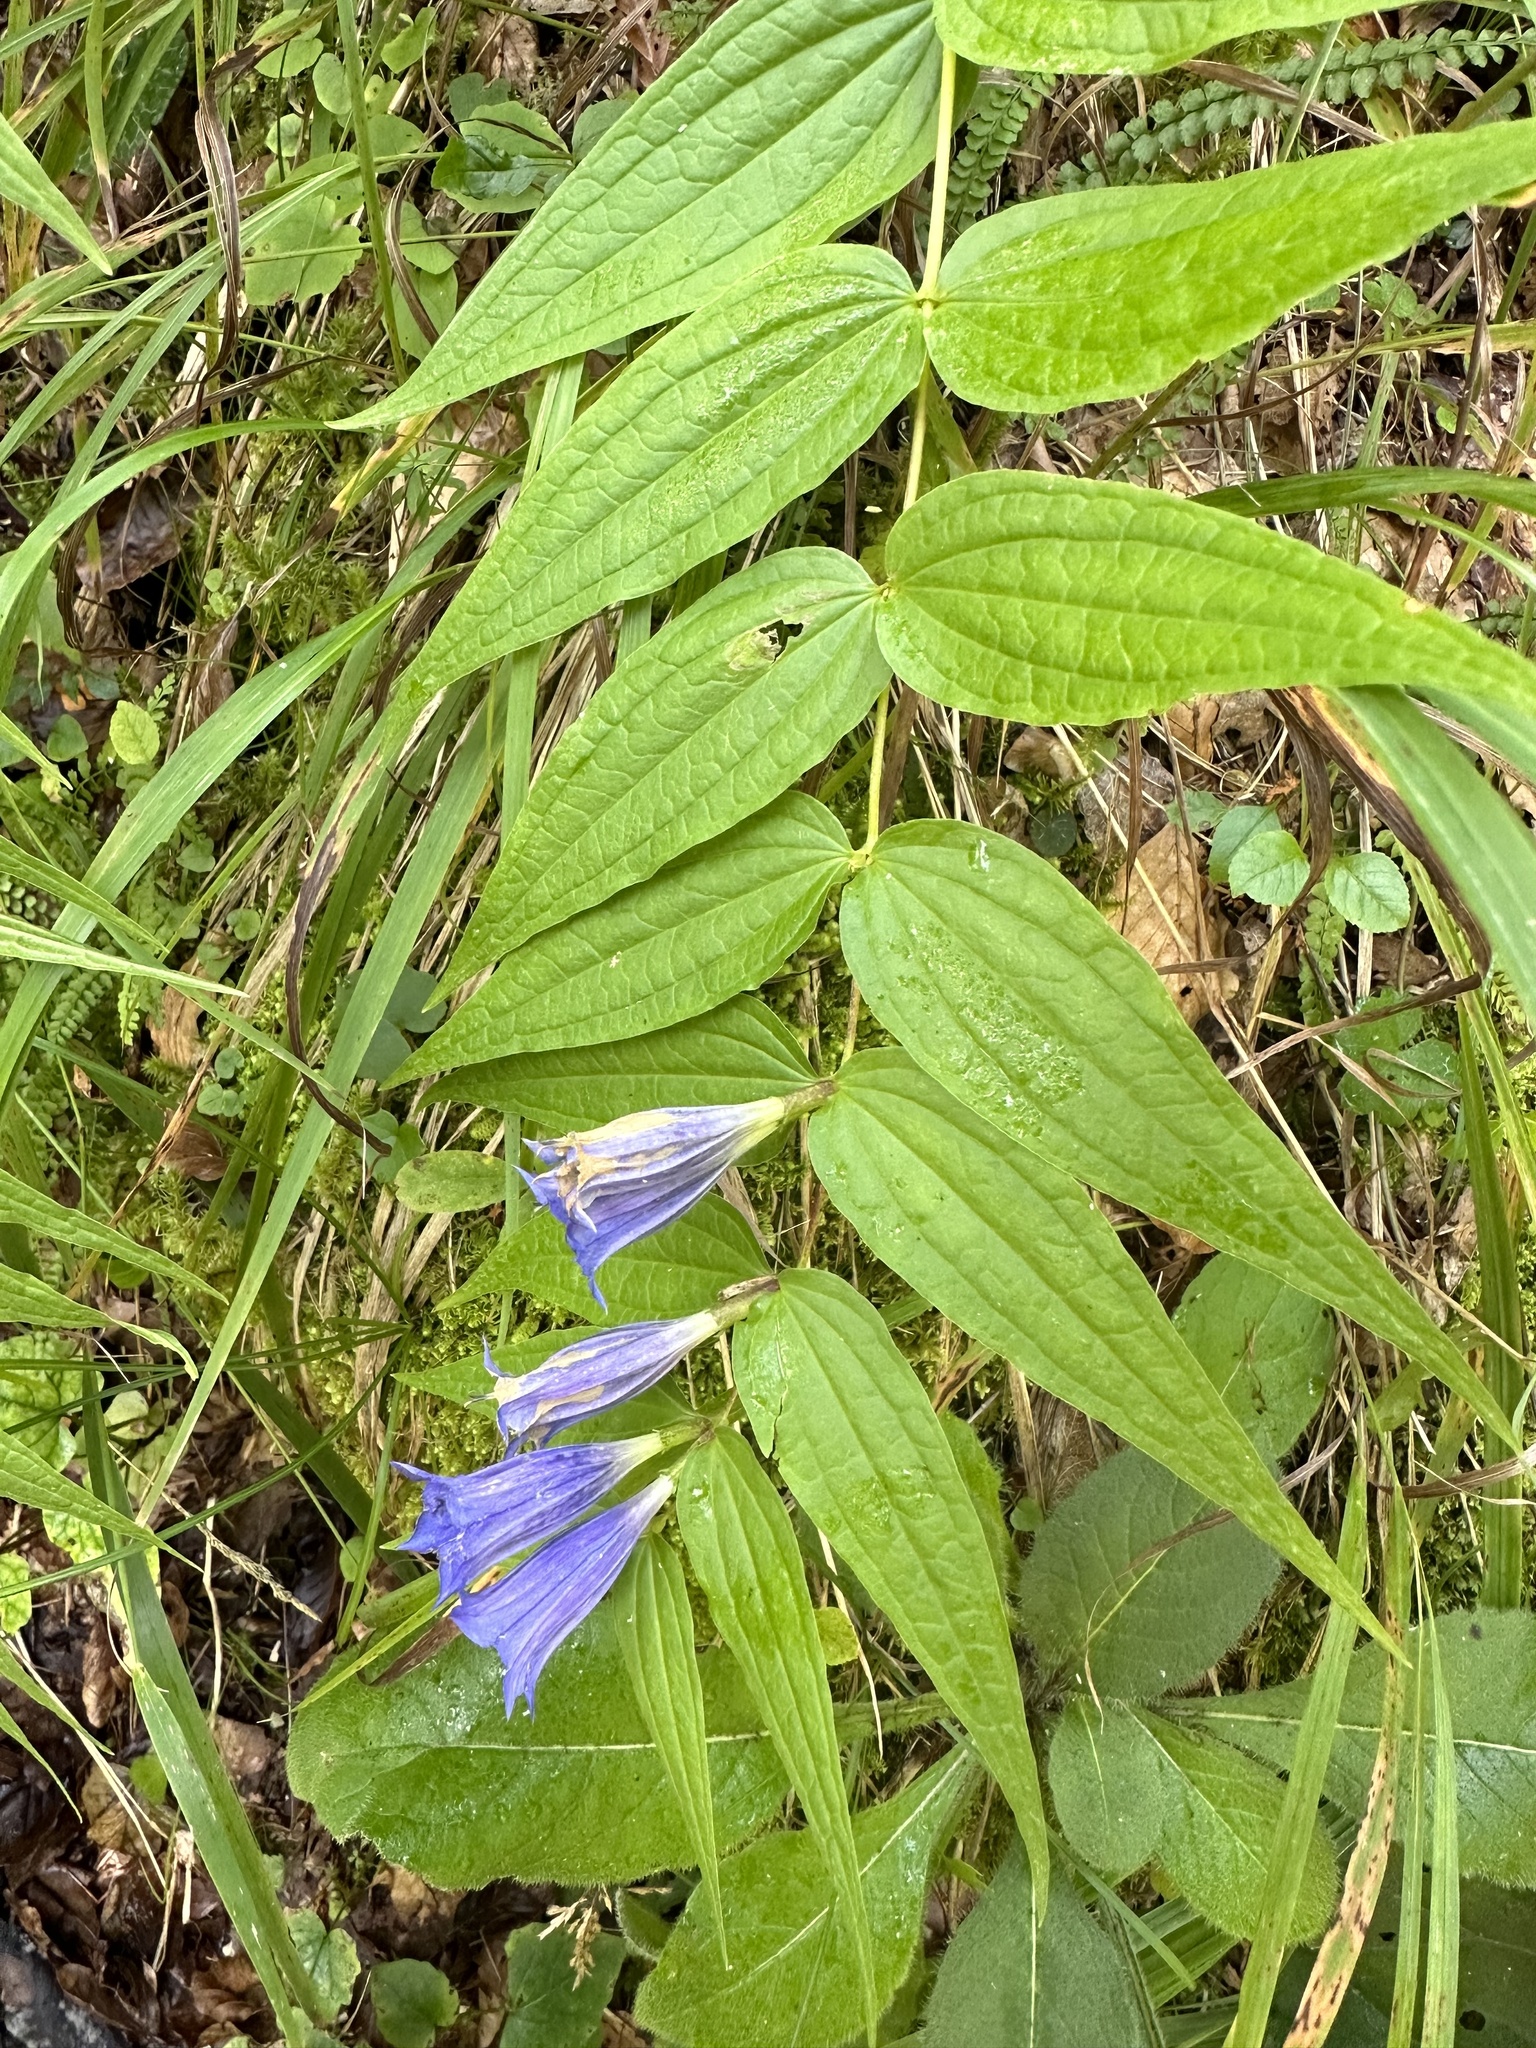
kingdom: Plantae
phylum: Tracheophyta
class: Magnoliopsida
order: Gentianales
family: Gentianaceae
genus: Gentiana
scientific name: Gentiana asclepiadea
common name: Willow gentian
